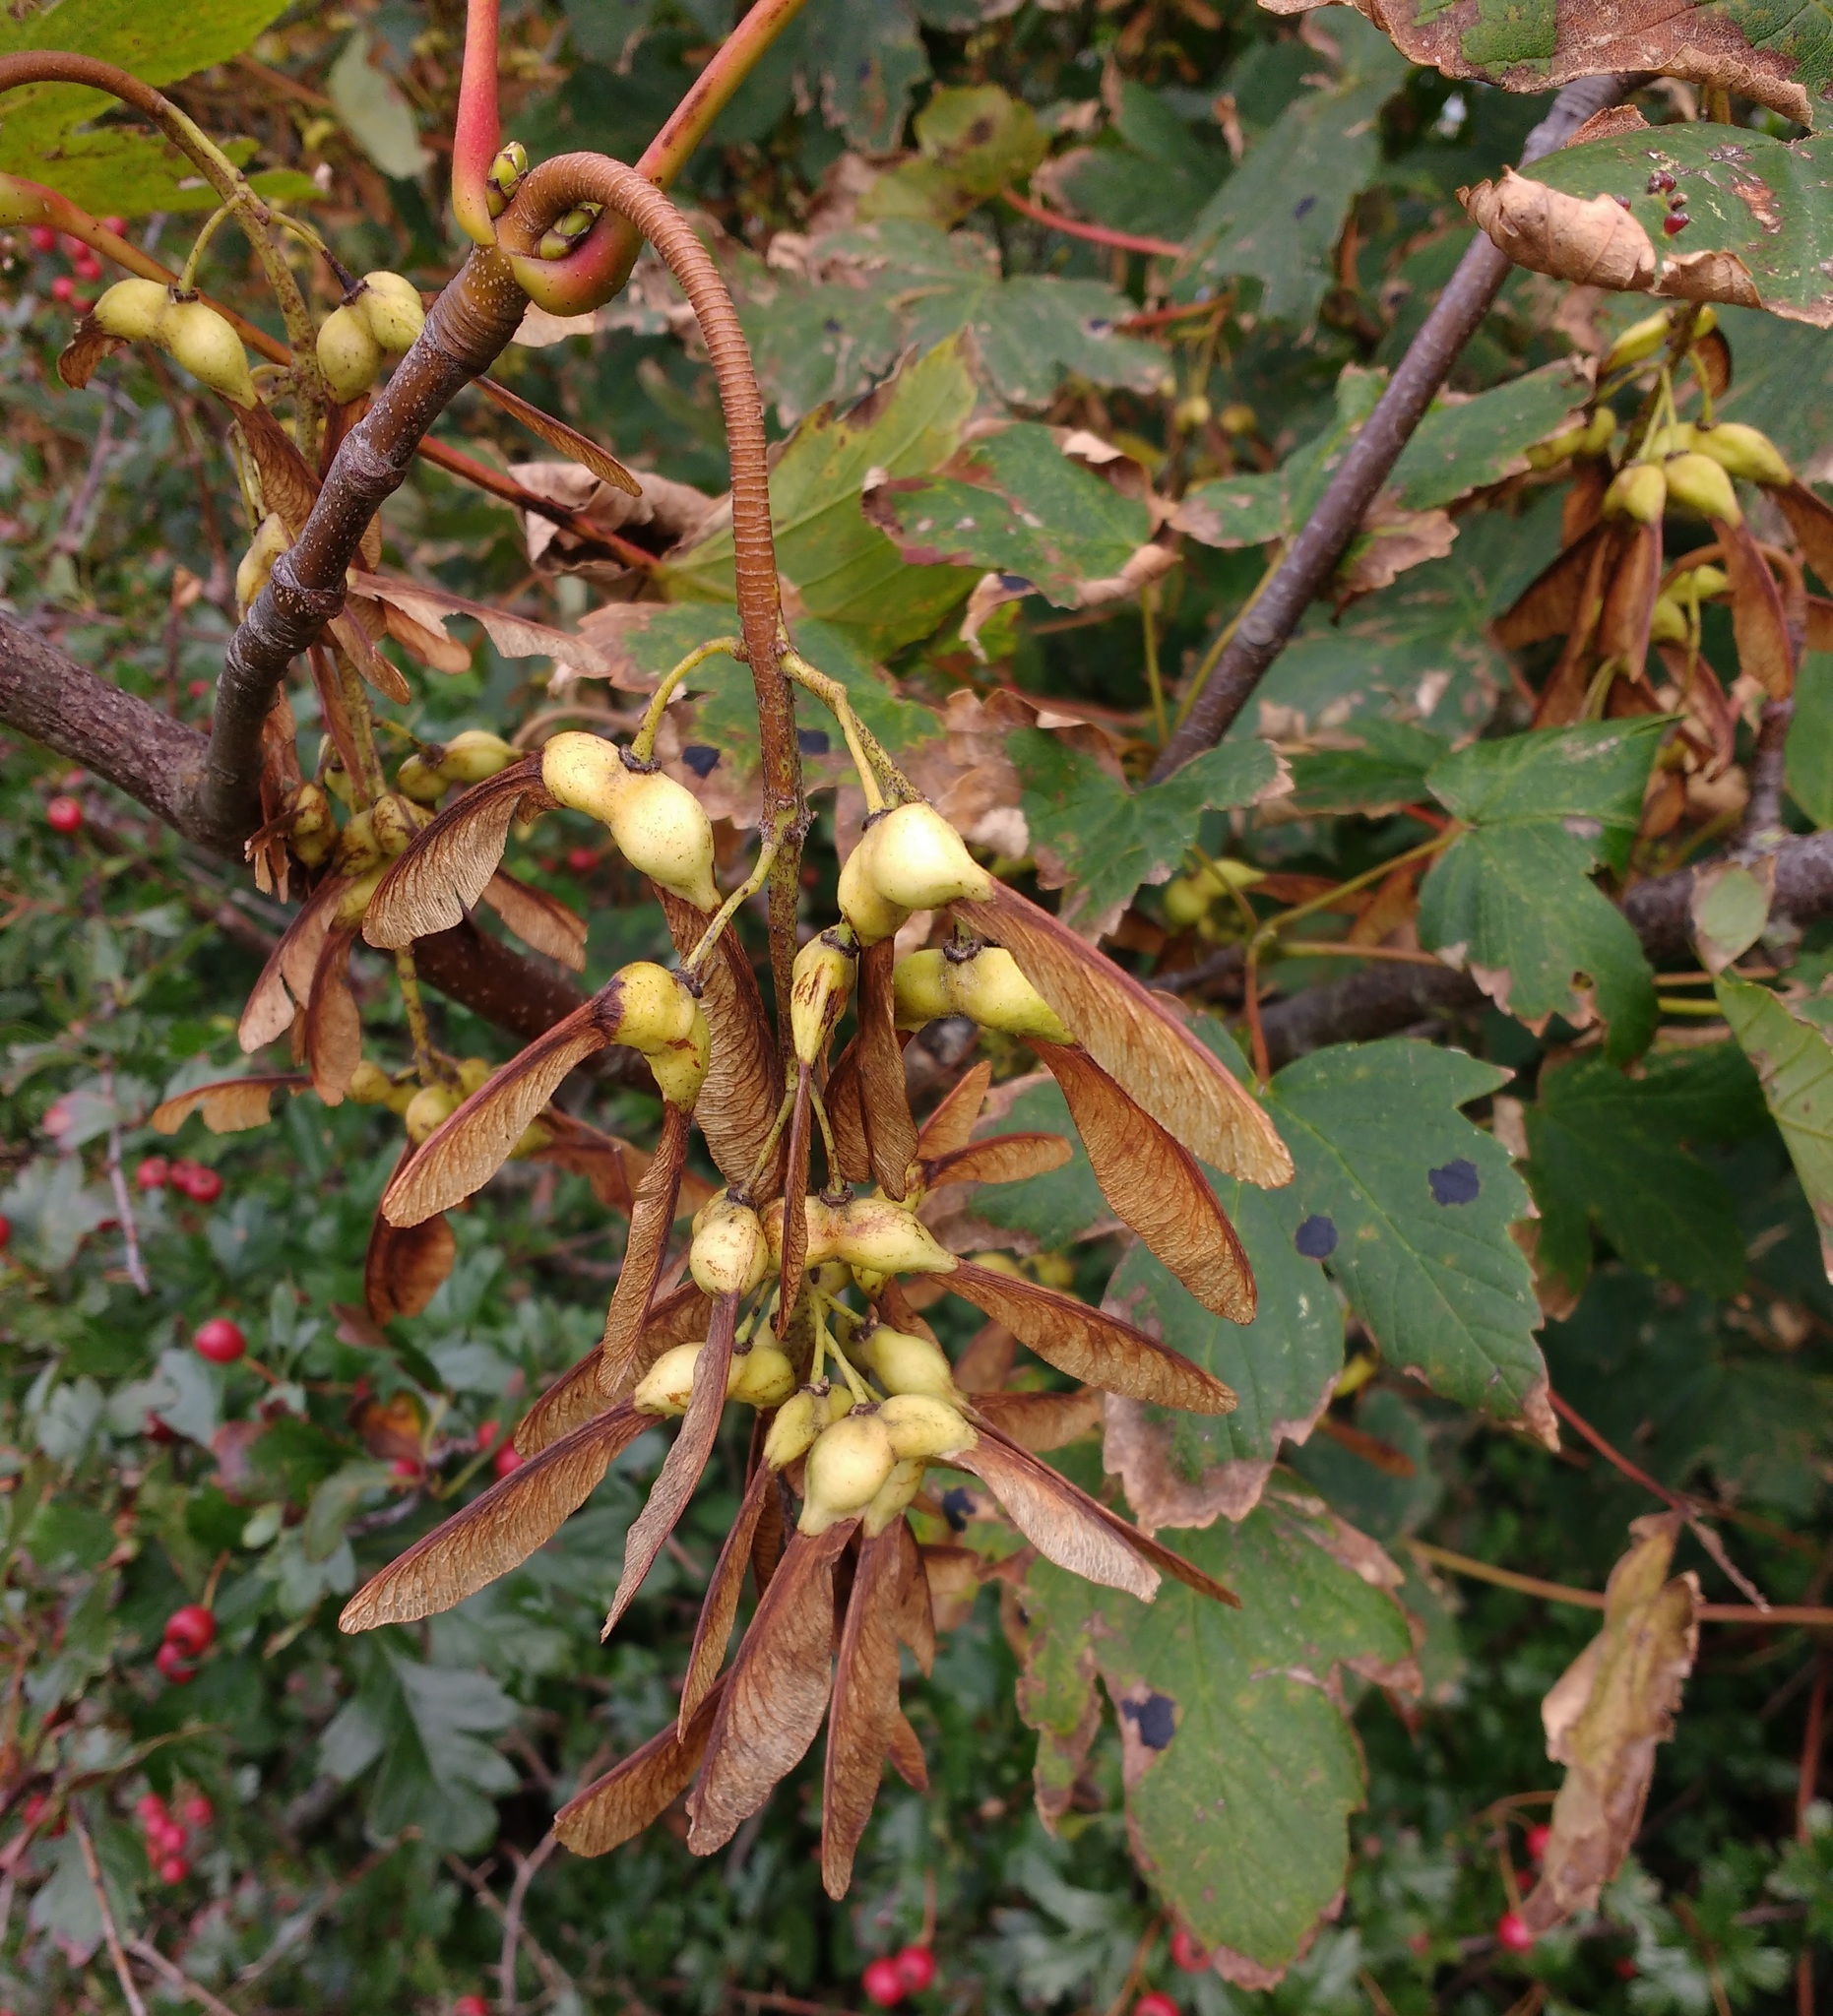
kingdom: Plantae
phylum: Tracheophyta
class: Magnoliopsida
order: Sapindales
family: Sapindaceae
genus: Acer
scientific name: Acer pseudoplatanus
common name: Sycamore
